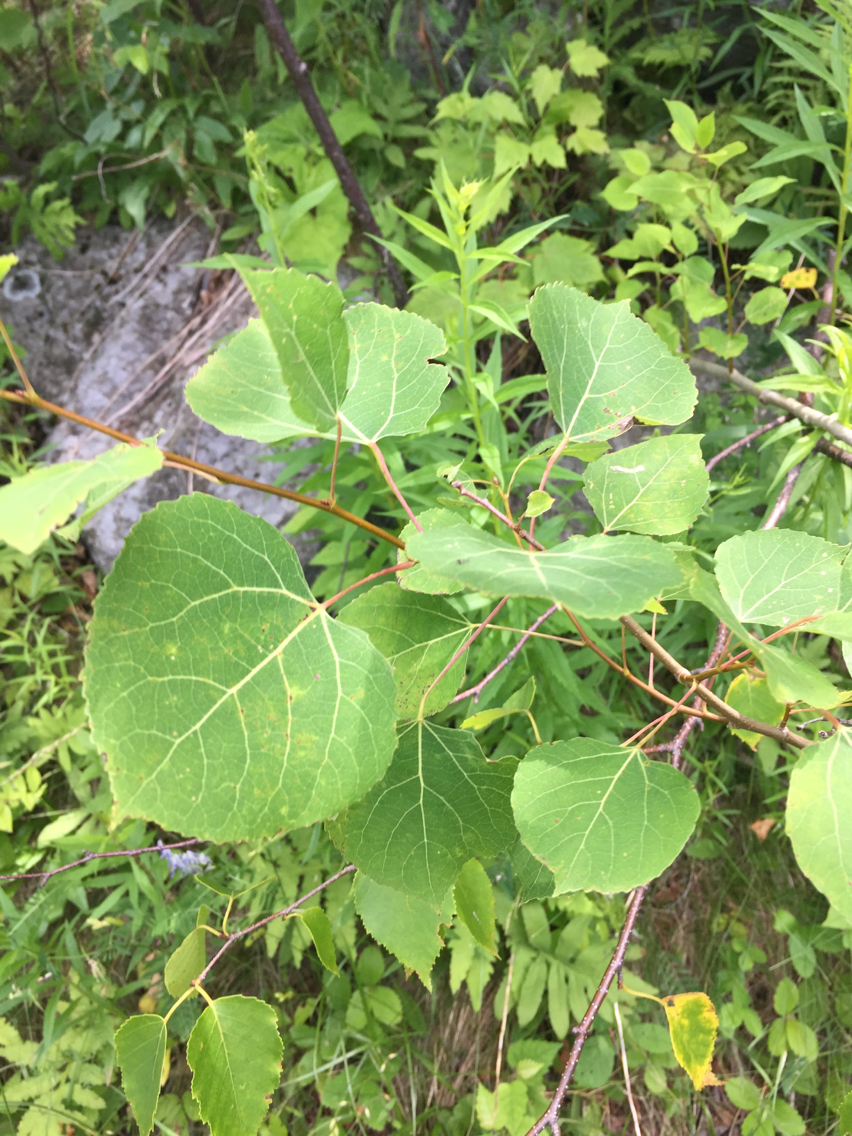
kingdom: Plantae
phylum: Tracheophyta
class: Magnoliopsida
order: Malpighiales
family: Salicaceae
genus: Populus
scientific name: Populus tremuloides
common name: Quaking aspen
